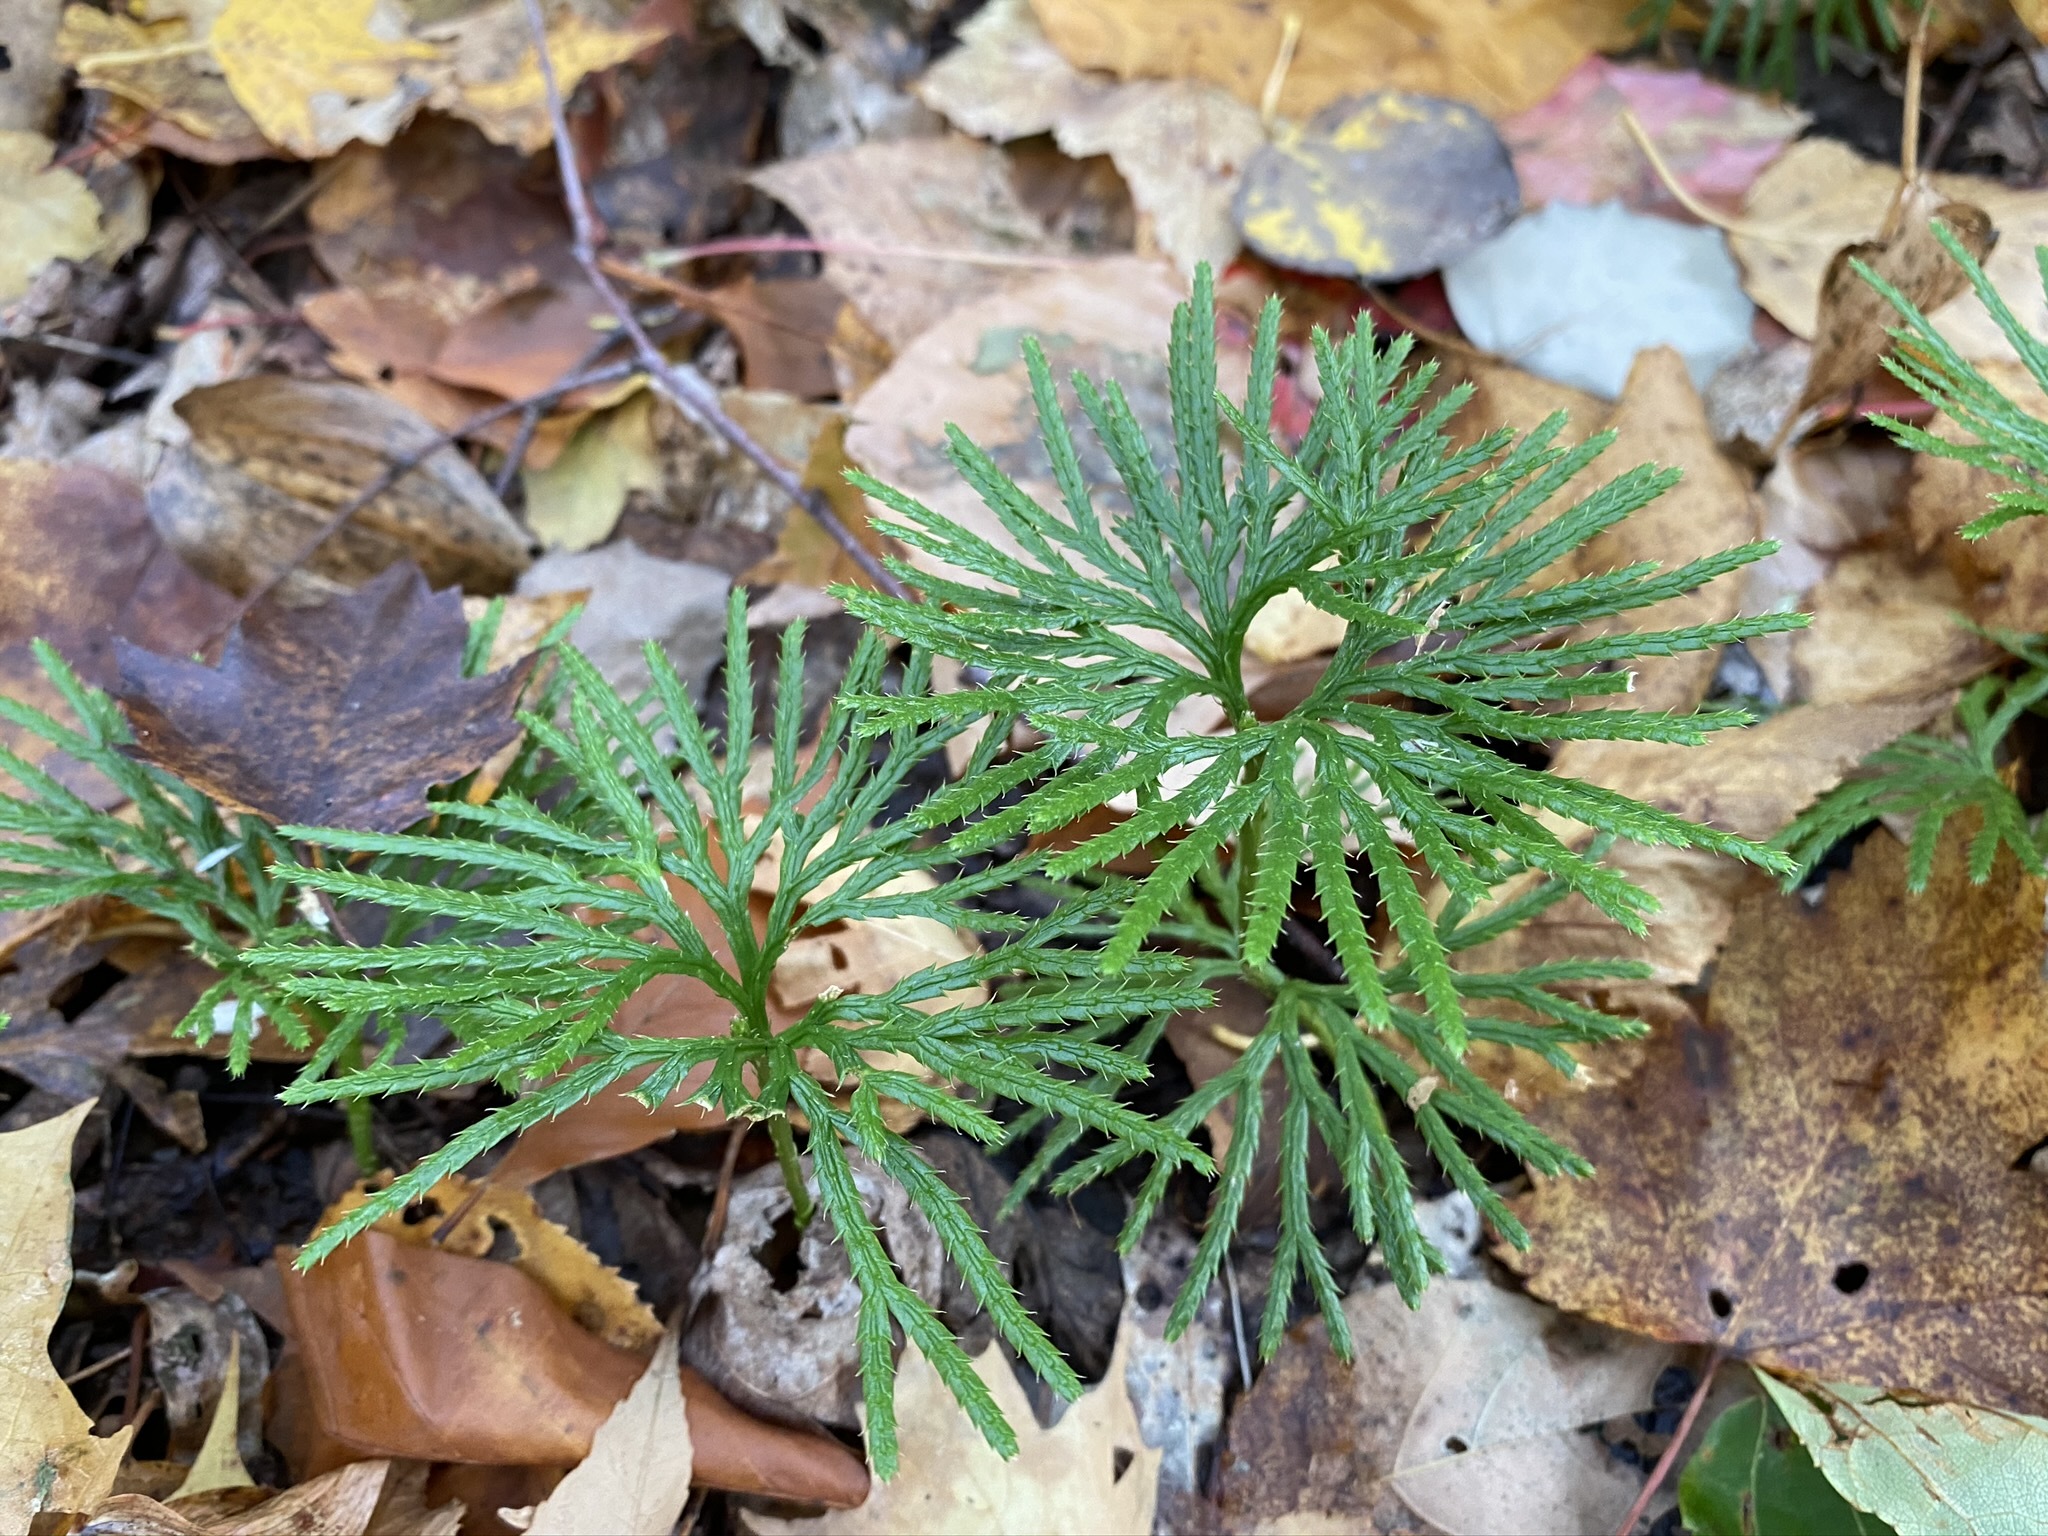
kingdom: Plantae
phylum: Tracheophyta
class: Lycopodiopsida
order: Lycopodiales
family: Lycopodiaceae
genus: Diphasiastrum
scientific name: Diphasiastrum digitatum
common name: Southern running-pine
